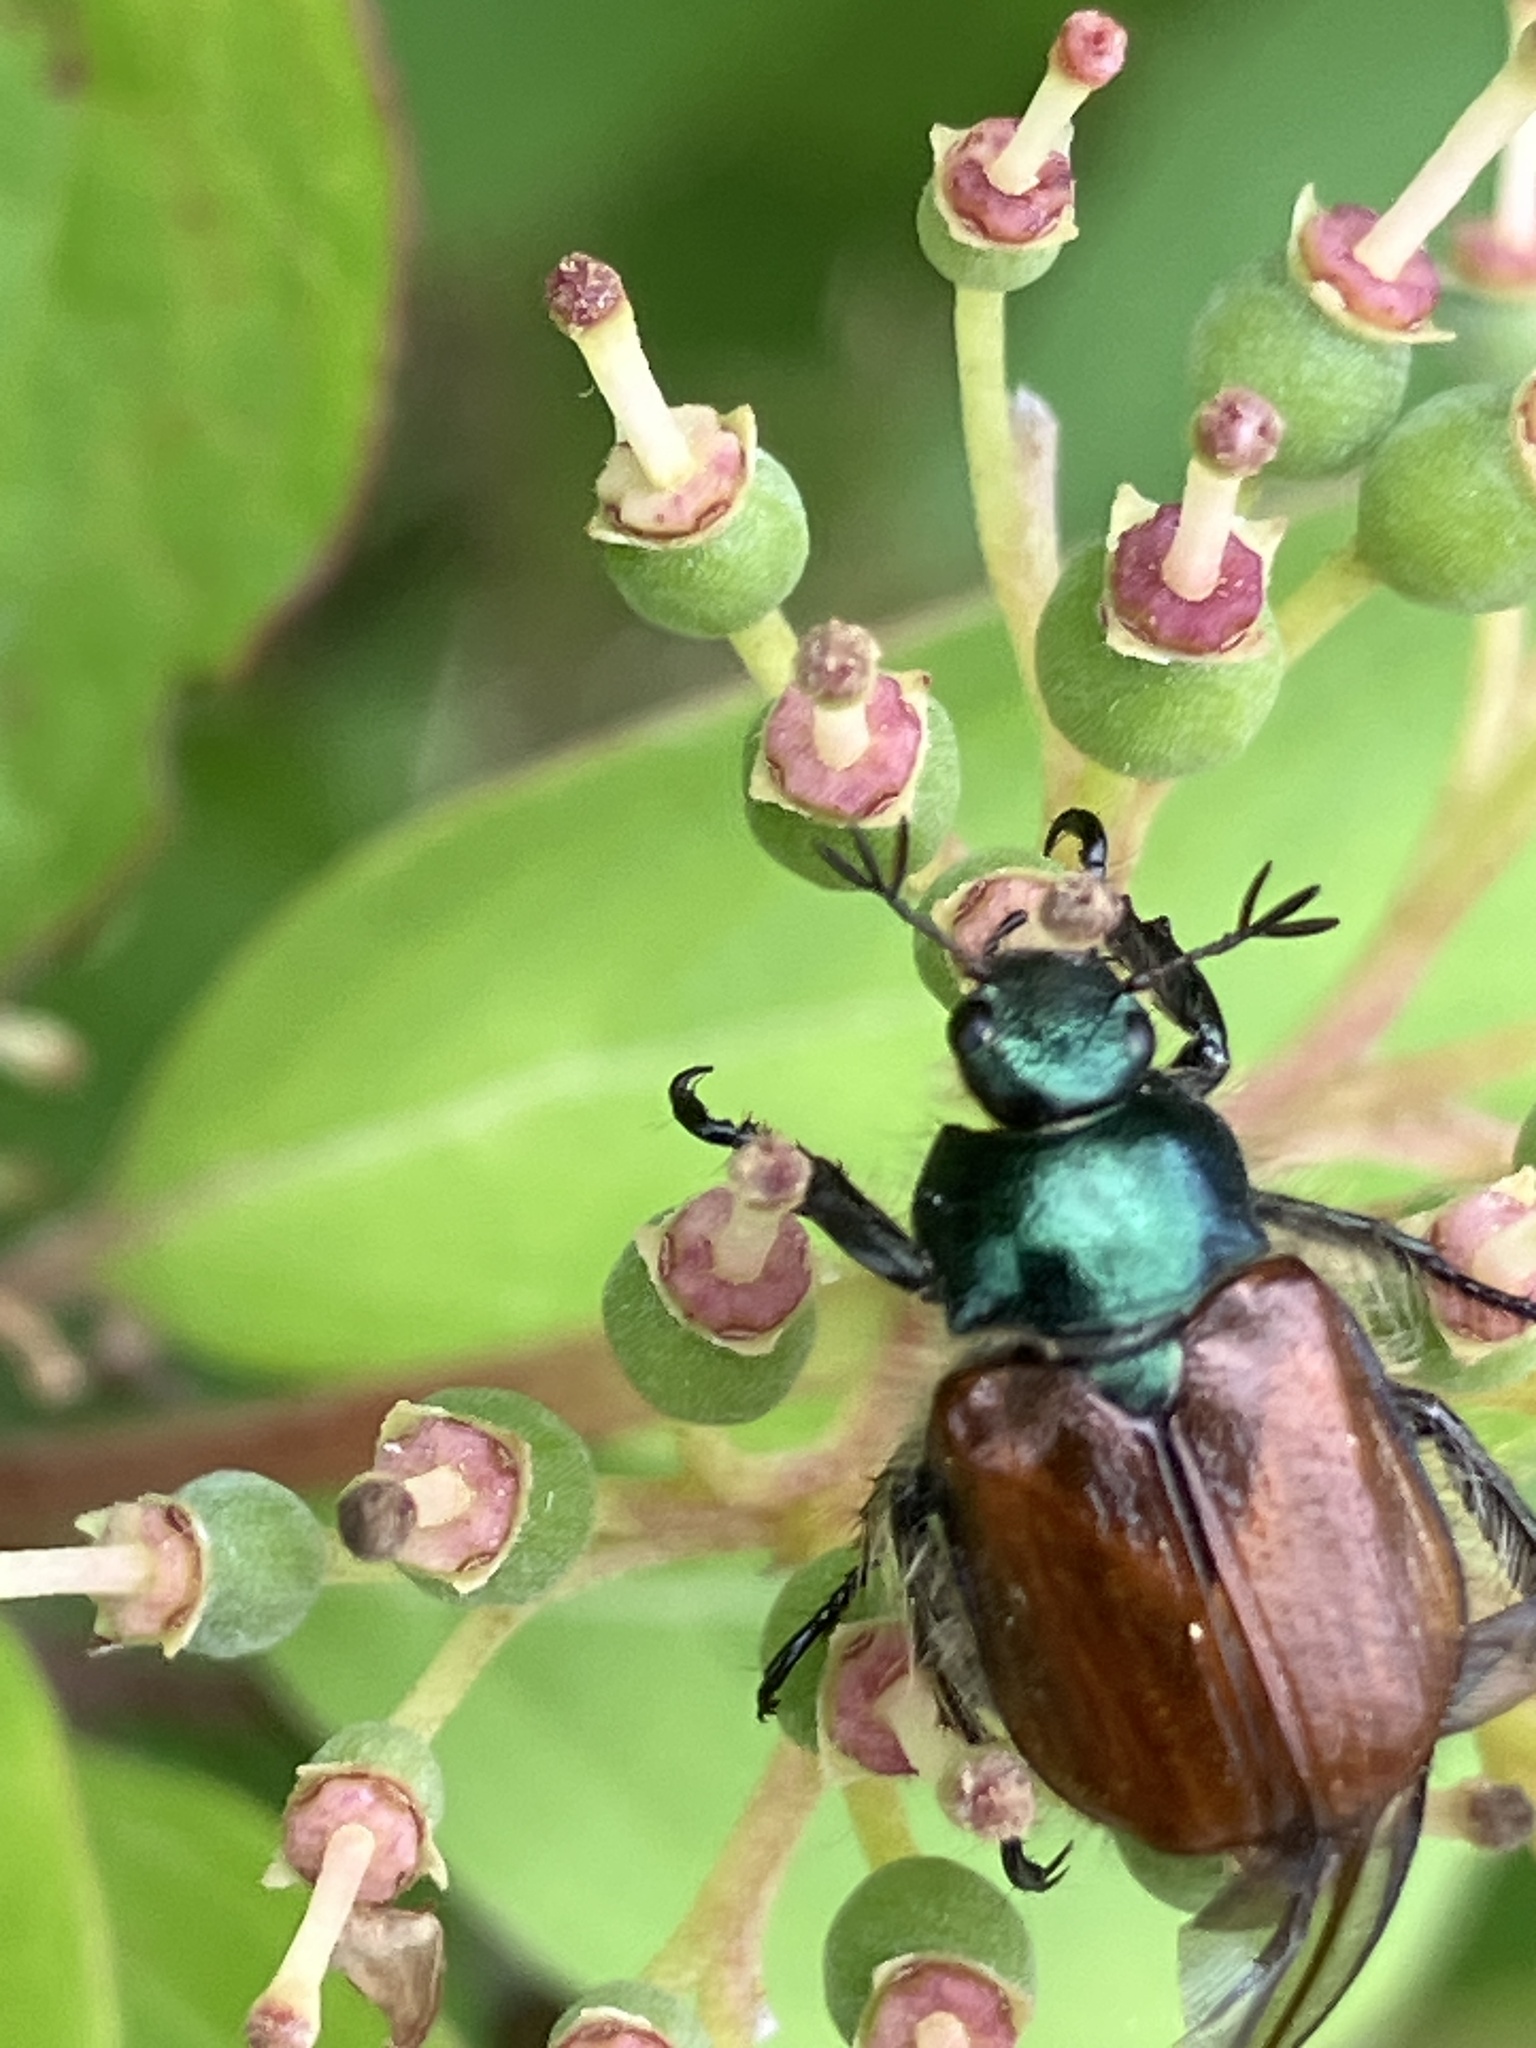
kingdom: Animalia
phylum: Arthropoda
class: Insecta
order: Coleoptera
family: Scarabaeidae
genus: Phyllopertha
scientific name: Phyllopertha horticola
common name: Garden chafer
